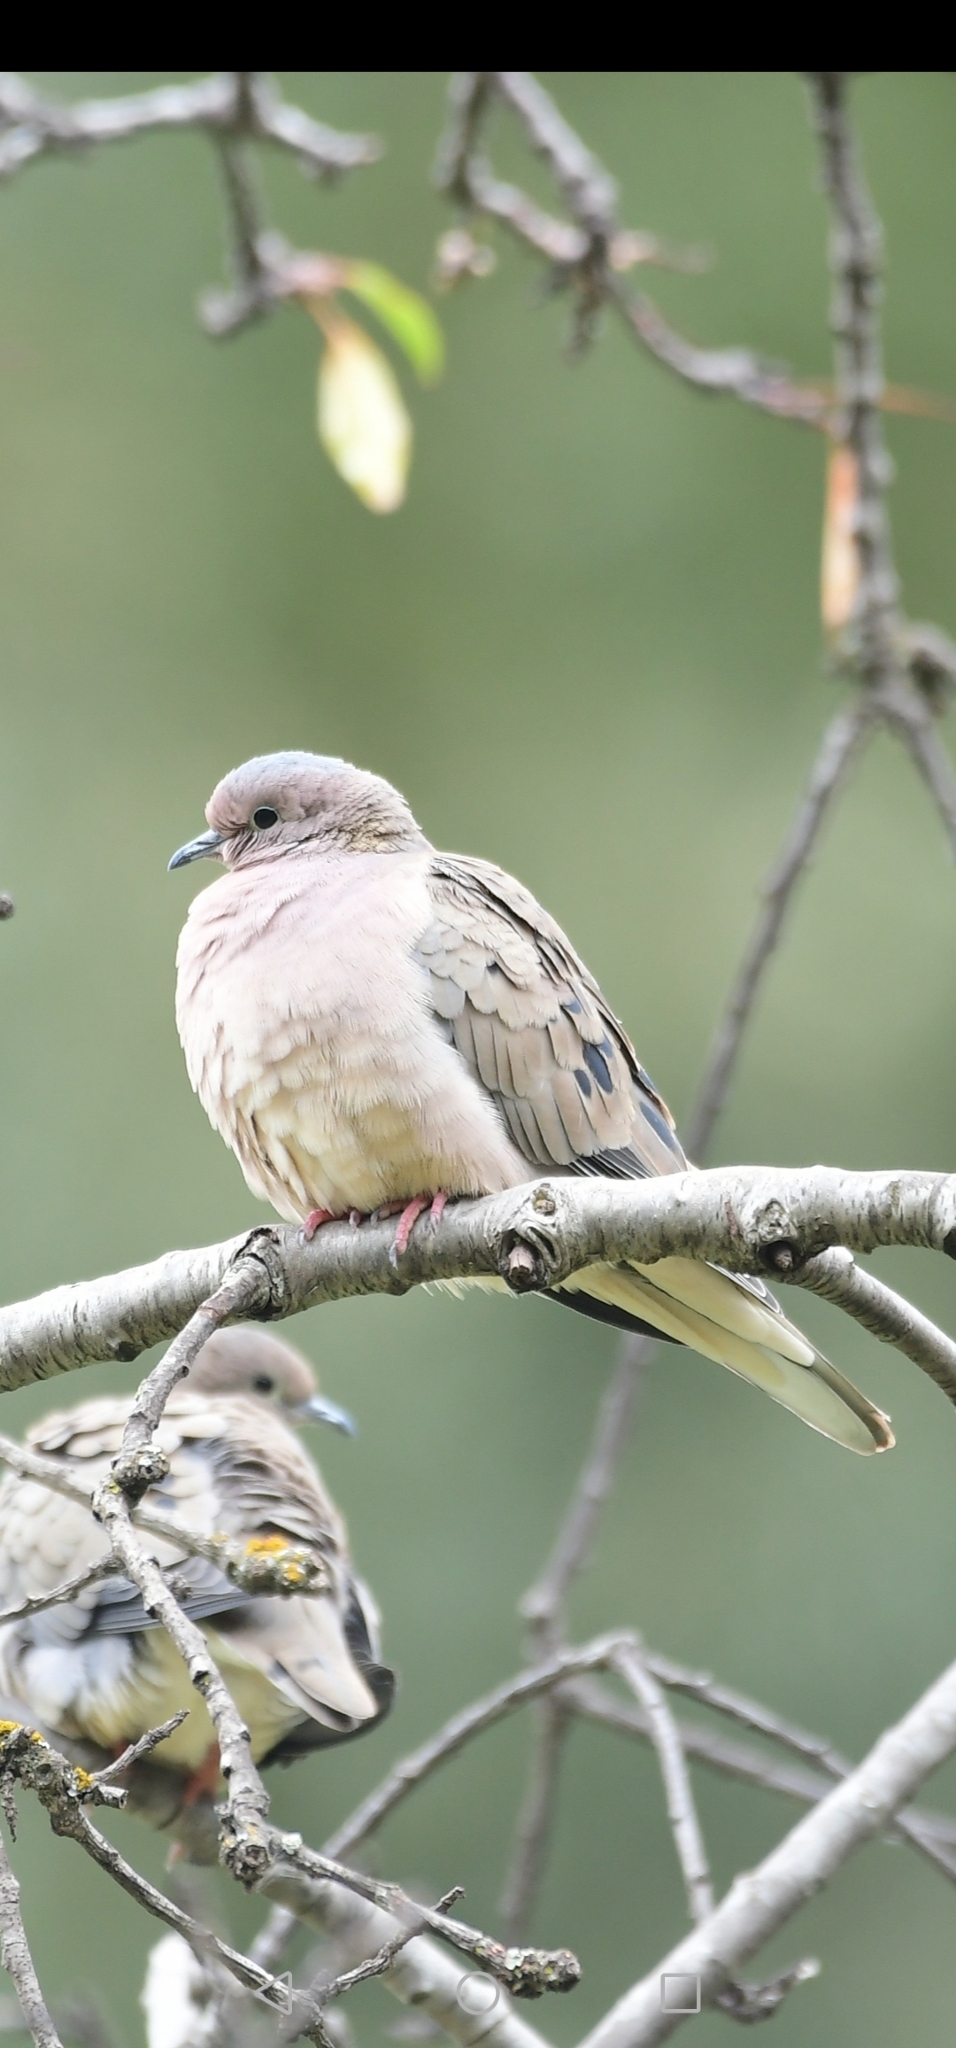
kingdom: Animalia
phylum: Chordata
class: Aves
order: Columbiformes
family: Columbidae
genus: Zenaida
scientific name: Zenaida auriculata
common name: Eared dove
